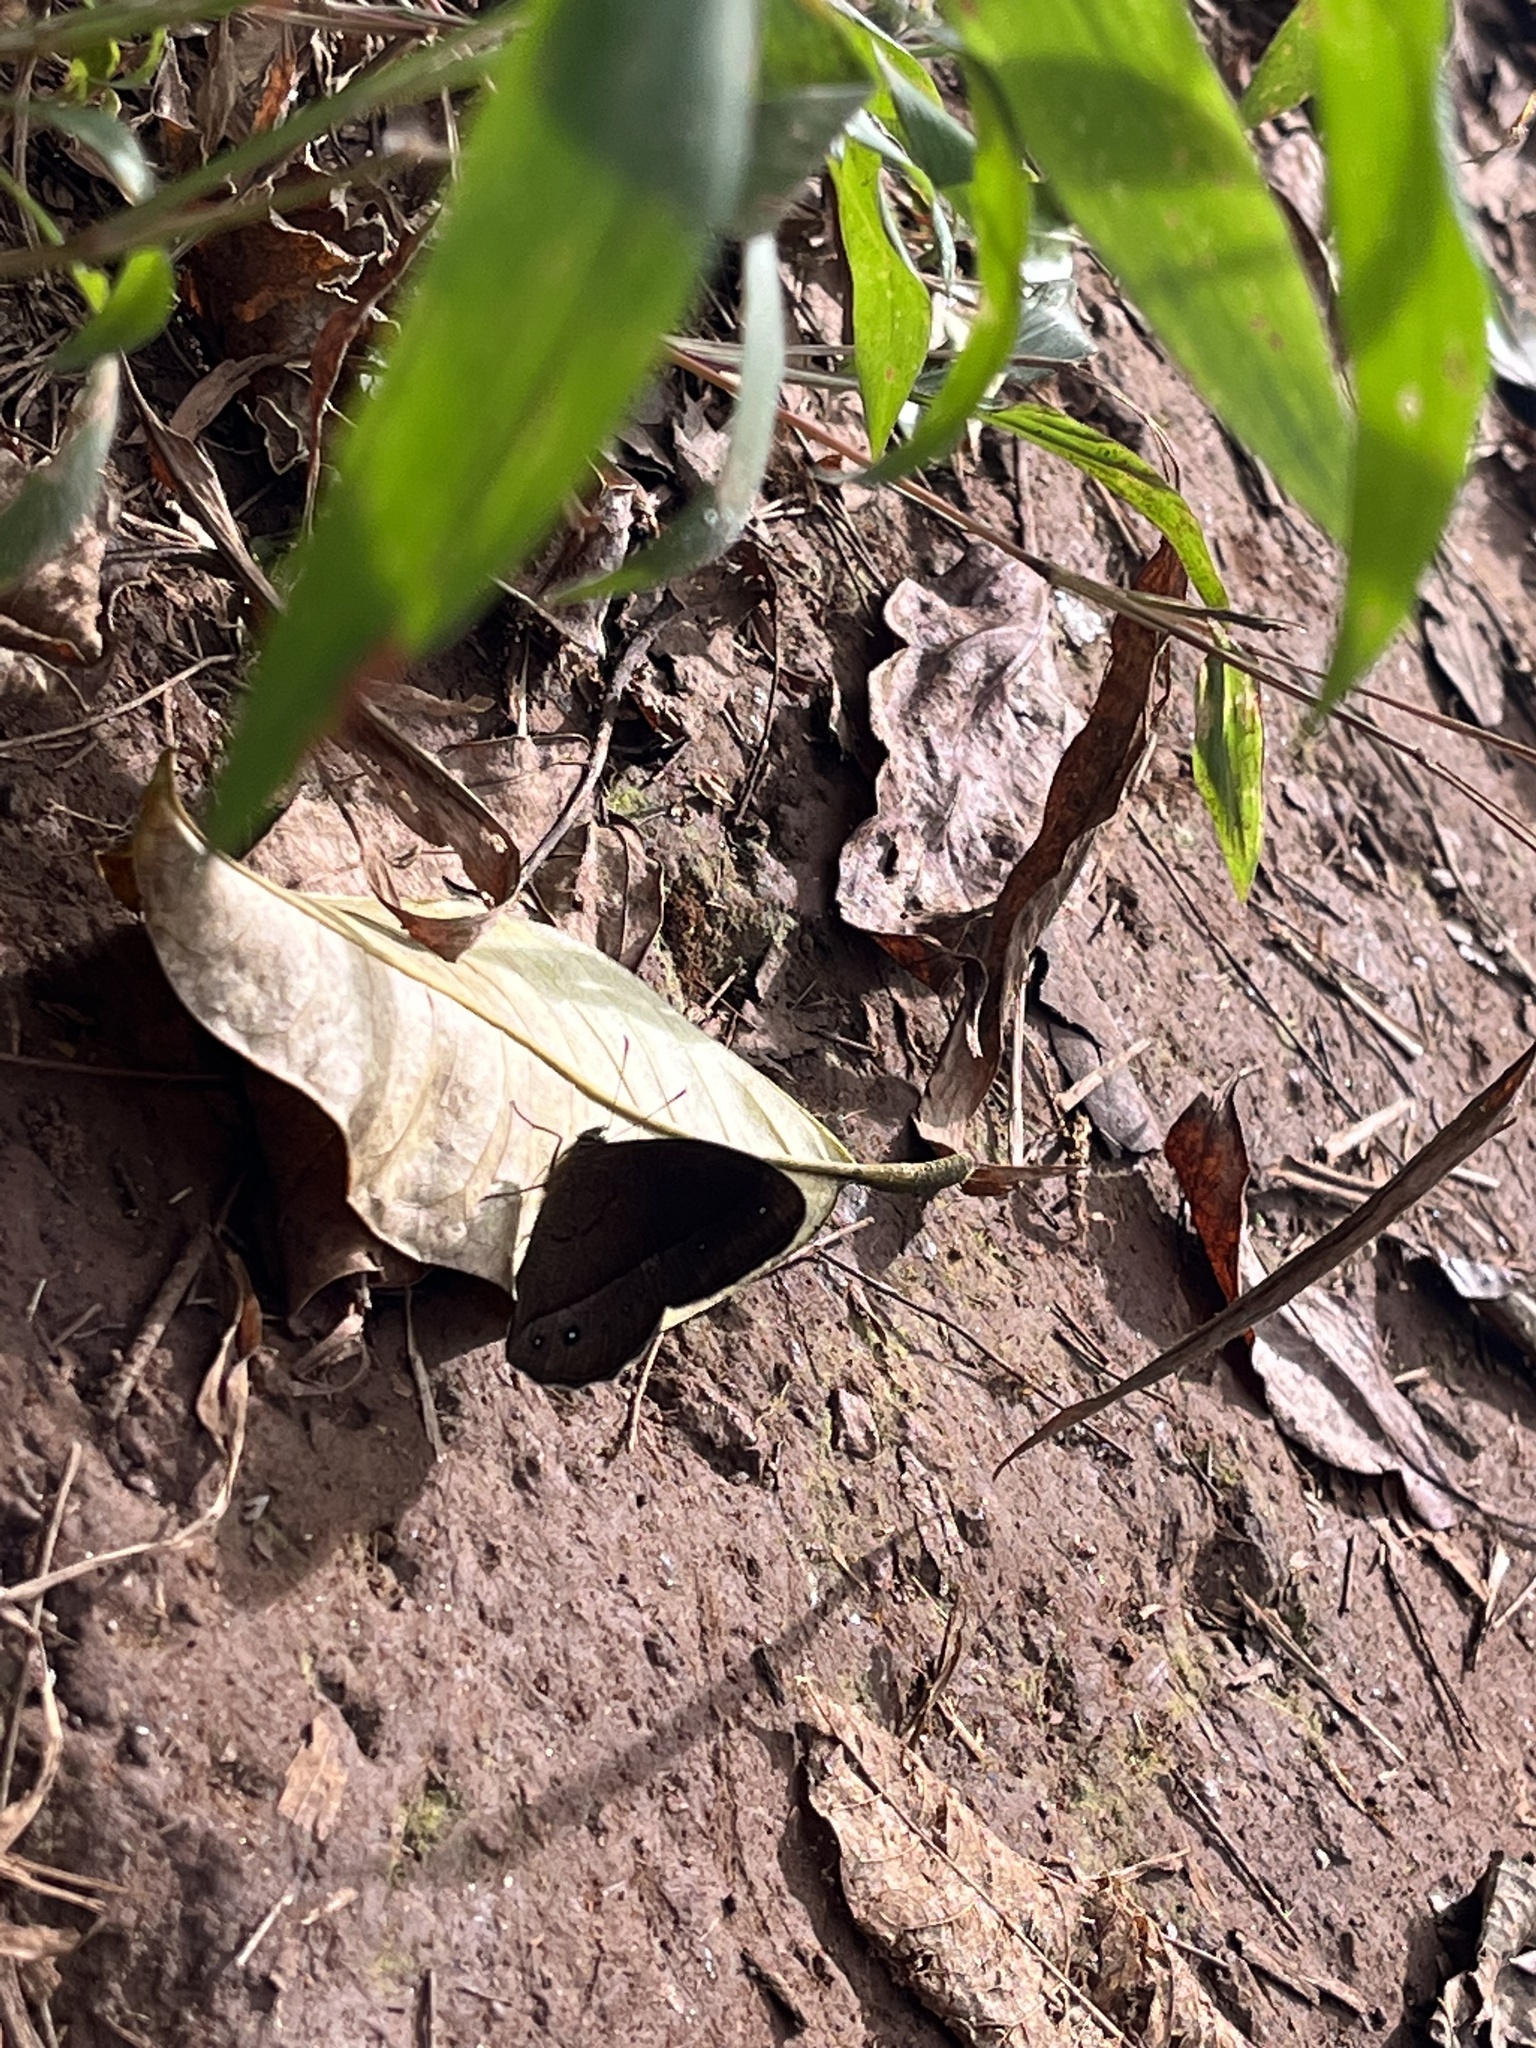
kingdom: Animalia
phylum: Arthropoda
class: Insecta
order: Lepidoptera
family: Nymphalidae
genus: Mycalesis
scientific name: Mycalesis Telinga adolphei
